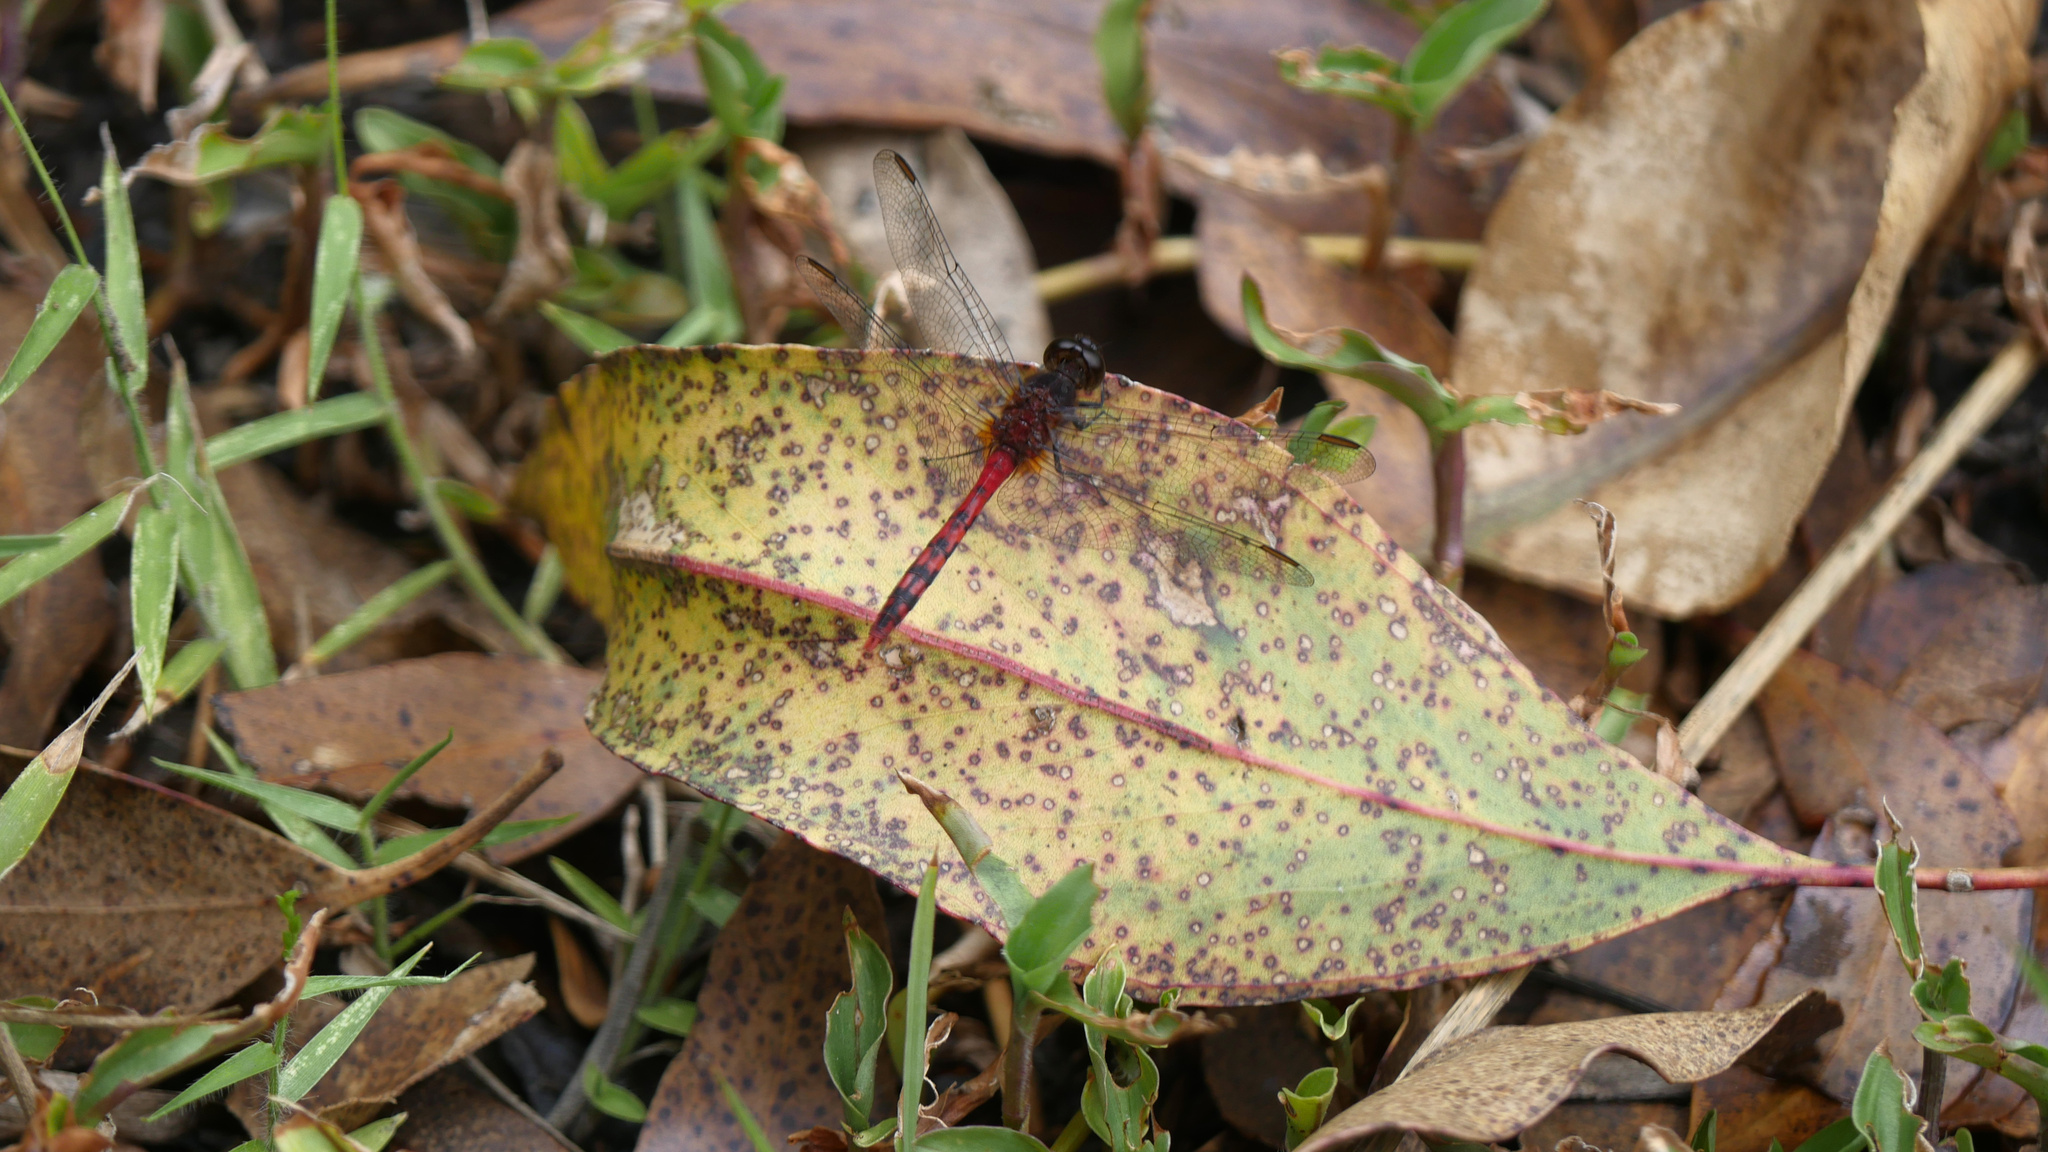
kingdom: Animalia
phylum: Arthropoda
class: Insecta
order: Odonata
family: Libellulidae
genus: Diplacodes
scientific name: Diplacodes melanopsis
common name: Black-faced percher
